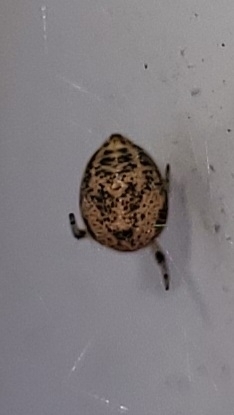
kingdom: Animalia
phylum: Arthropoda
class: Arachnida
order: Araneae
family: Theridiidae
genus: Parasteatoda
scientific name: Parasteatoda tepidariorum
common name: Common house spider
